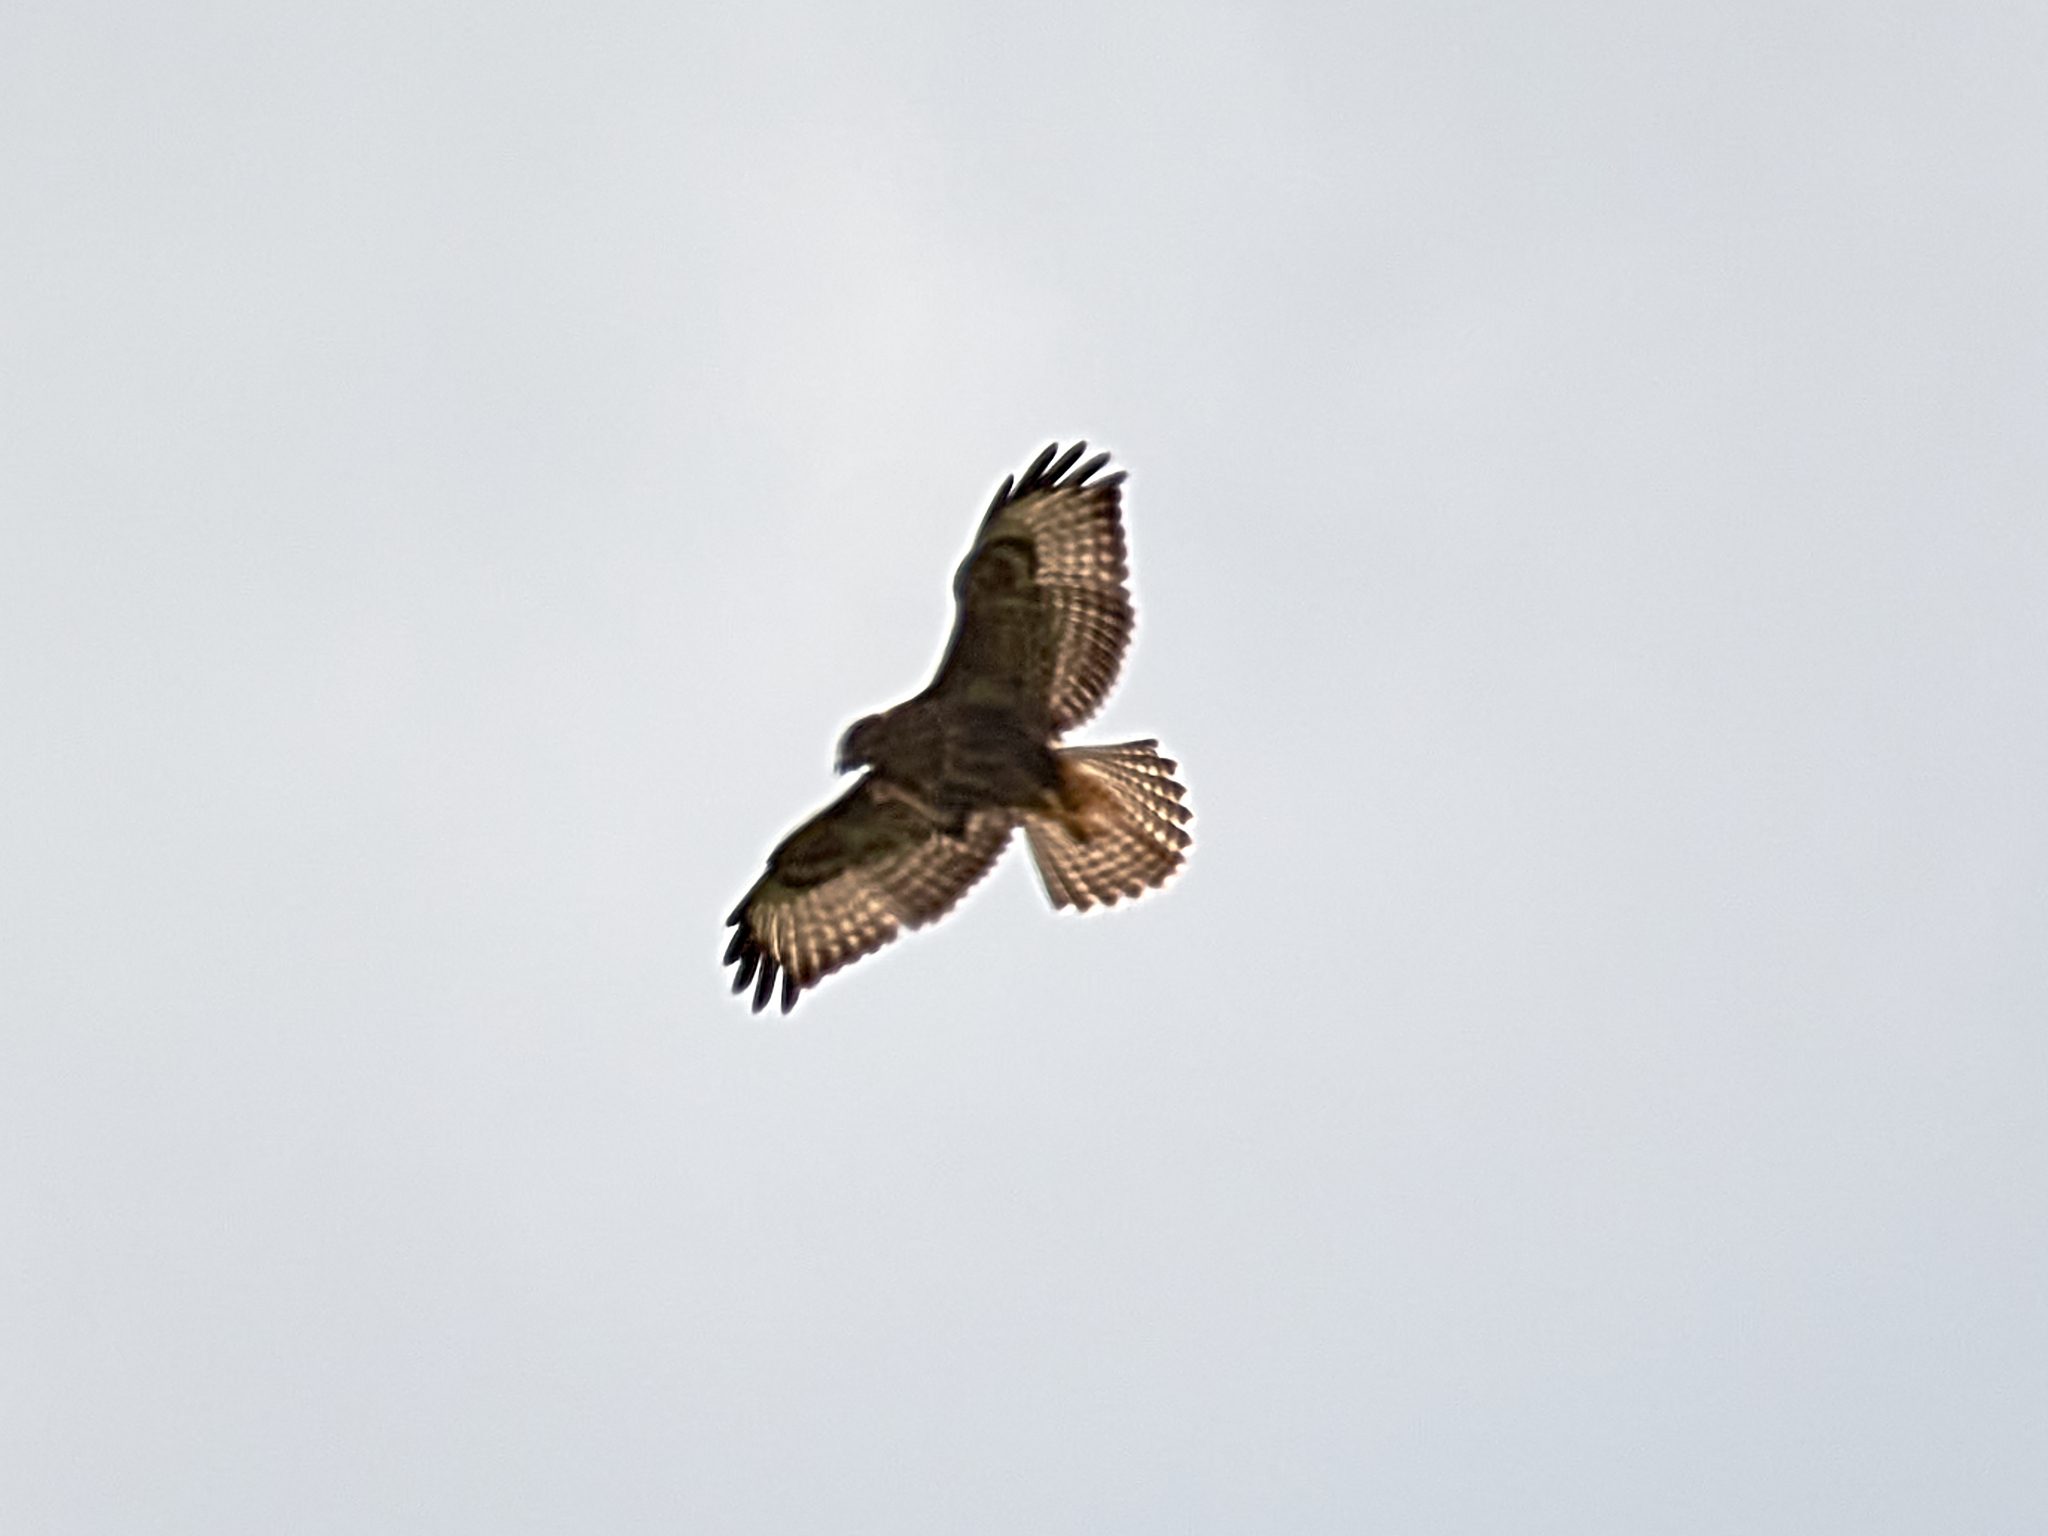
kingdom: Animalia
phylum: Chordata
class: Aves
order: Accipitriformes
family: Accipitridae
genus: Buteo
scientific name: Buteo buteo
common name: Common buzzard
